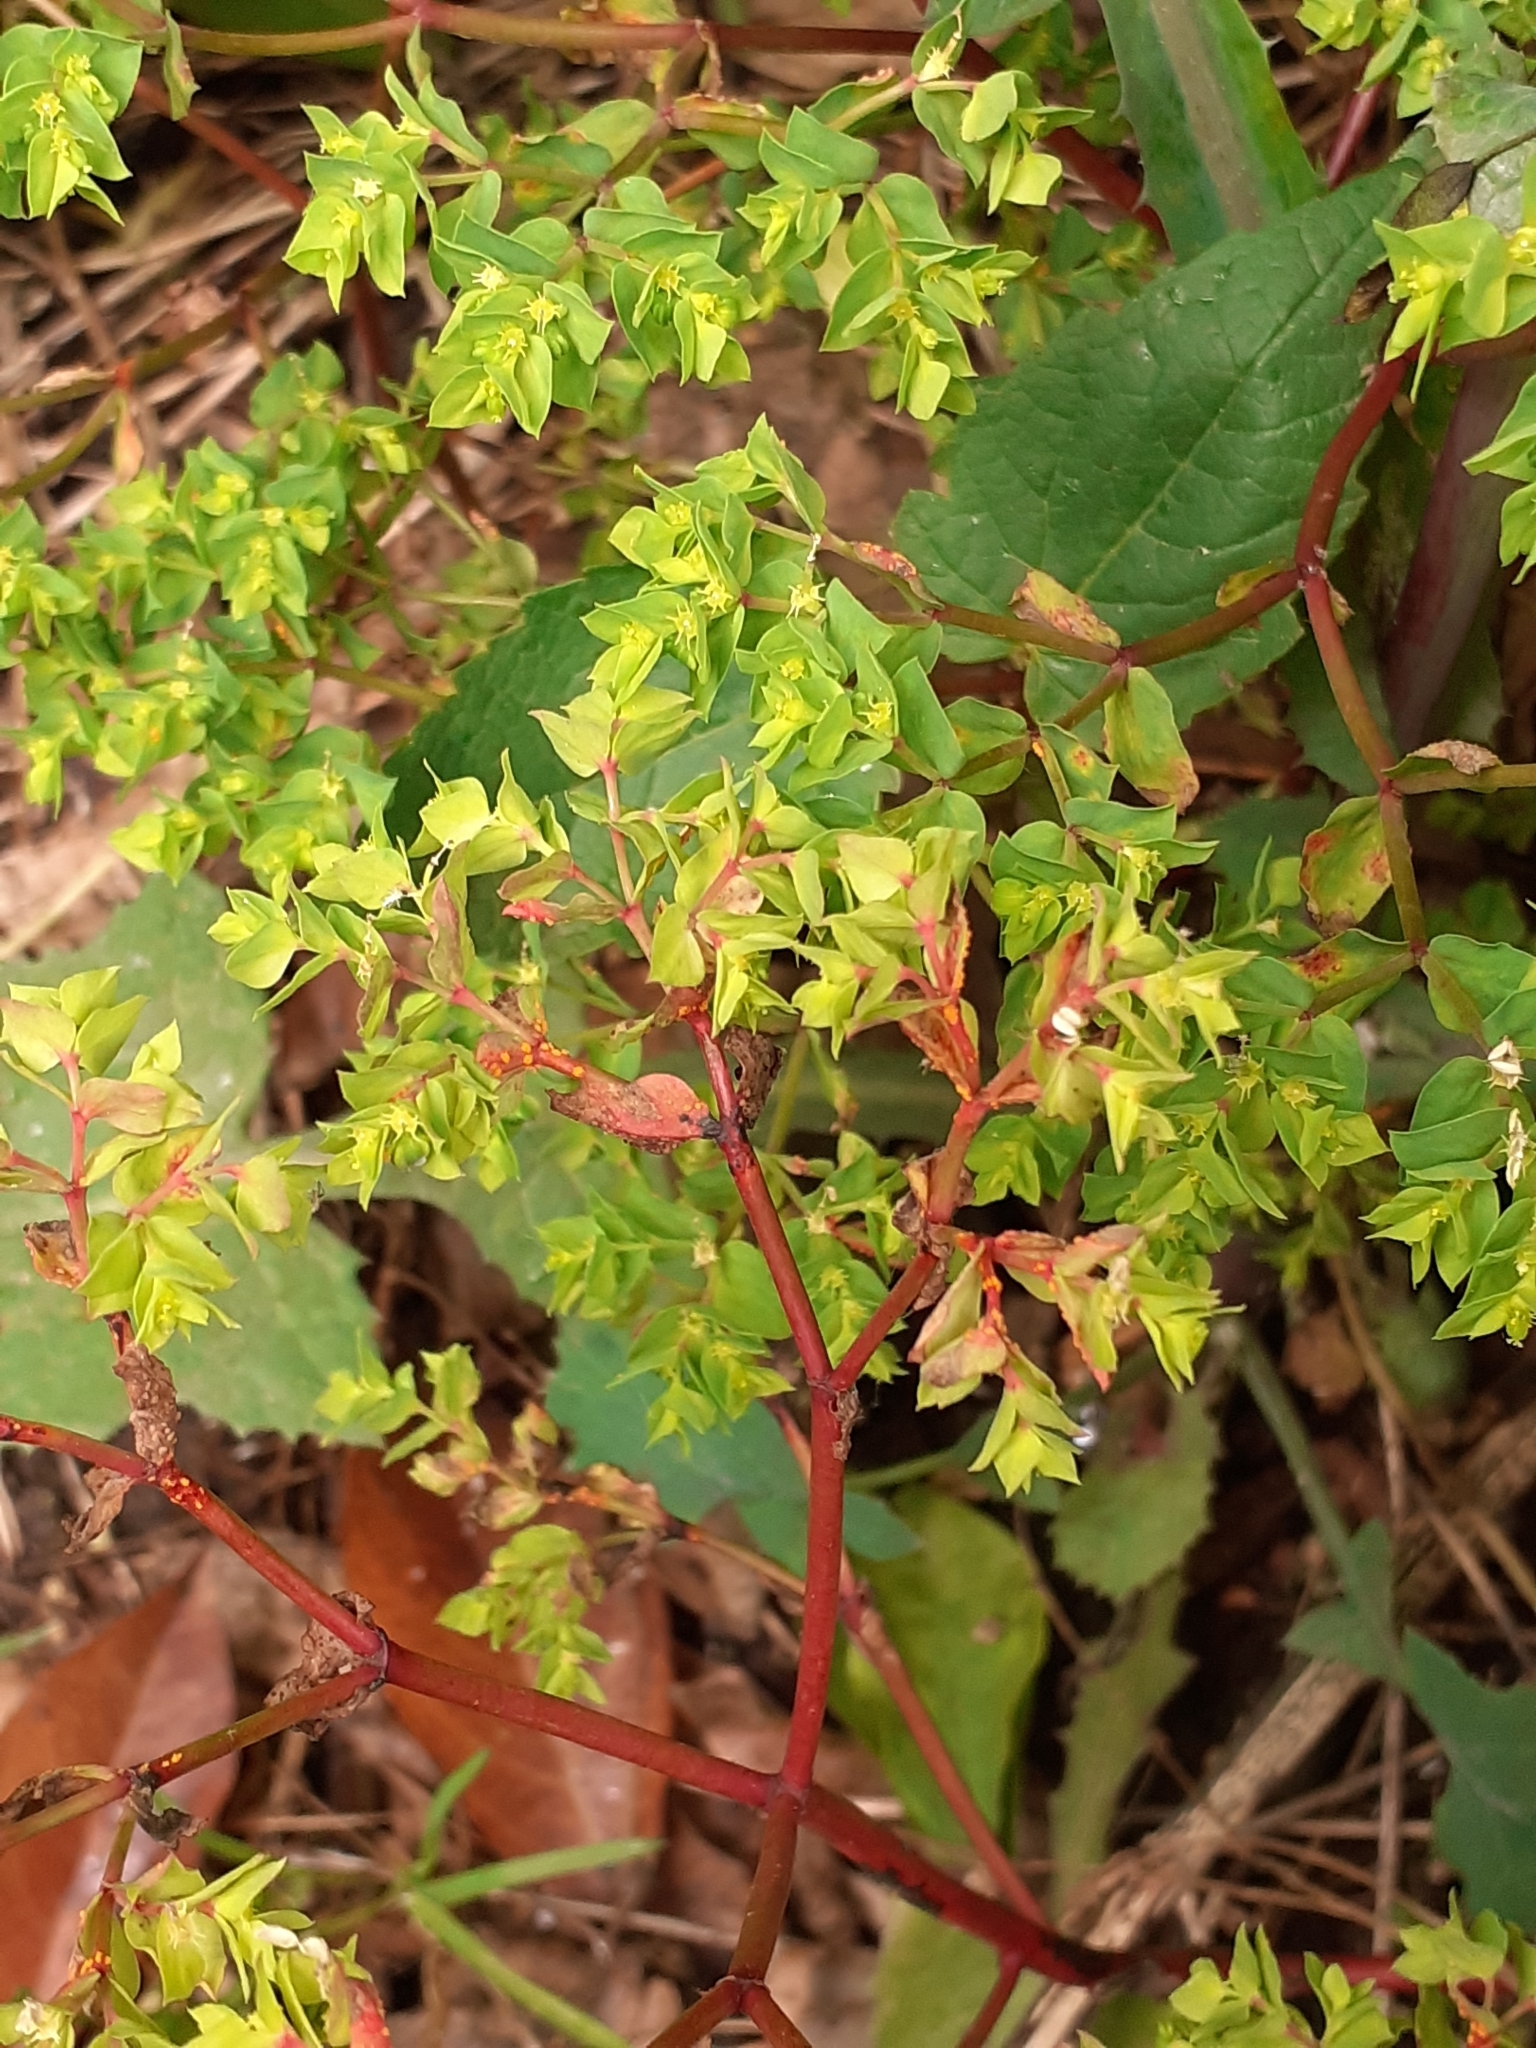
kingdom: Plantae
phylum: Tracheophyta
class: Magnoliopsida
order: Malpighiales
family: Euphorbiaceae
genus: Euphorbia
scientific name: Euphorbia peplus
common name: Petty spurge
